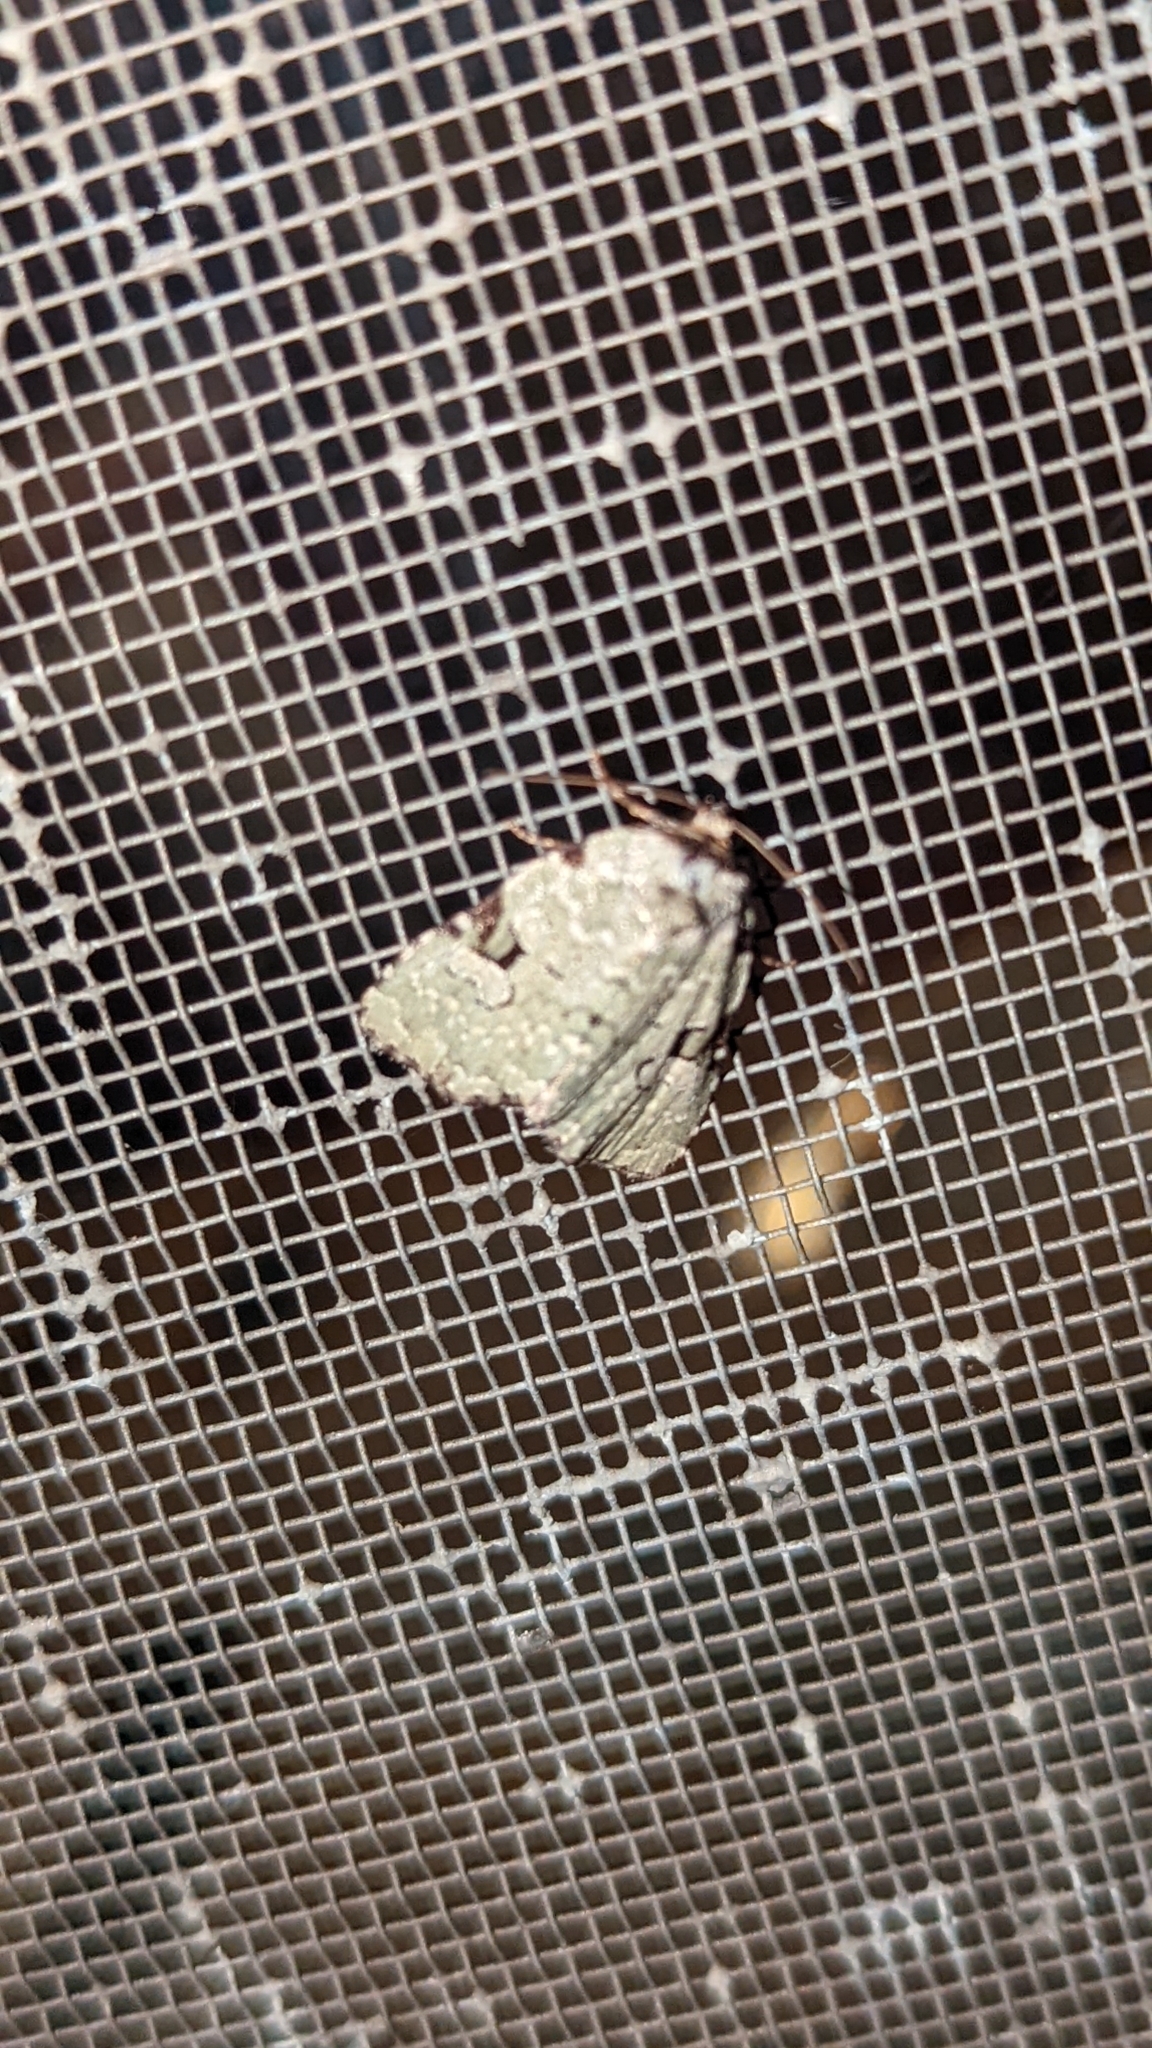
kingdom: Animalia
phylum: Arthropoda
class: Insecta
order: Lepidoptera
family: Noctuidae
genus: Leuconycta
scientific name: Leuconycta diphteroides
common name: Green leuconycta moth
